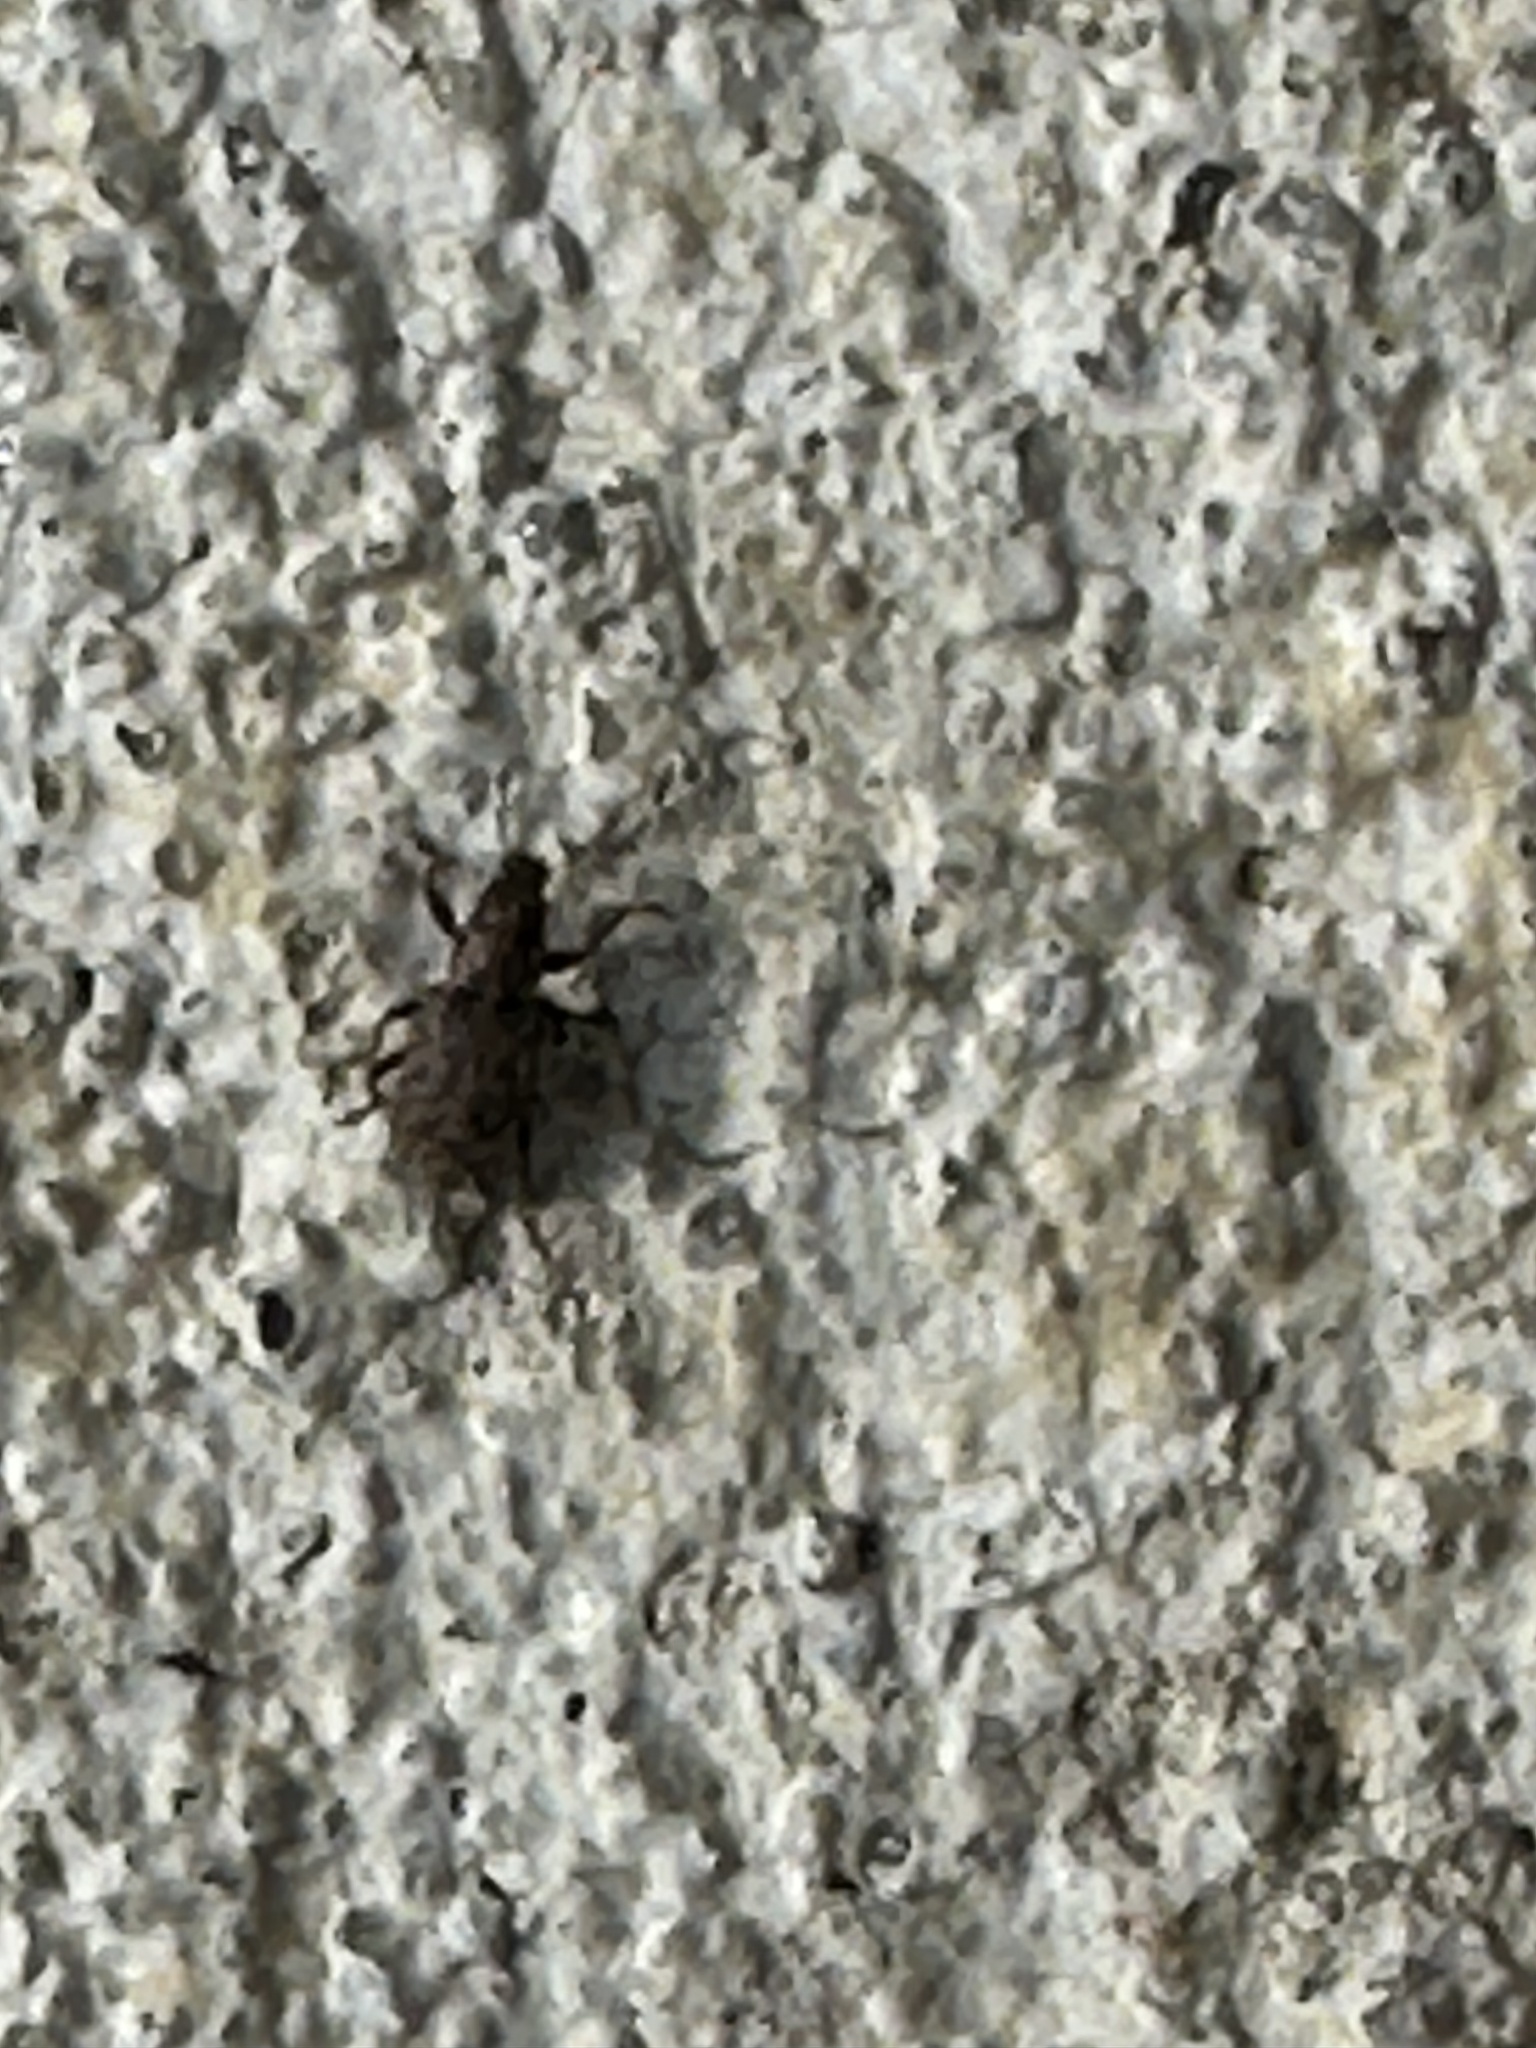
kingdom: Animalia
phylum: Arthropoda
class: Insecta
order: Coleoptera
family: Curculionidae
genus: Sitona
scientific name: Sitona hispidulus
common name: Clover weevil
